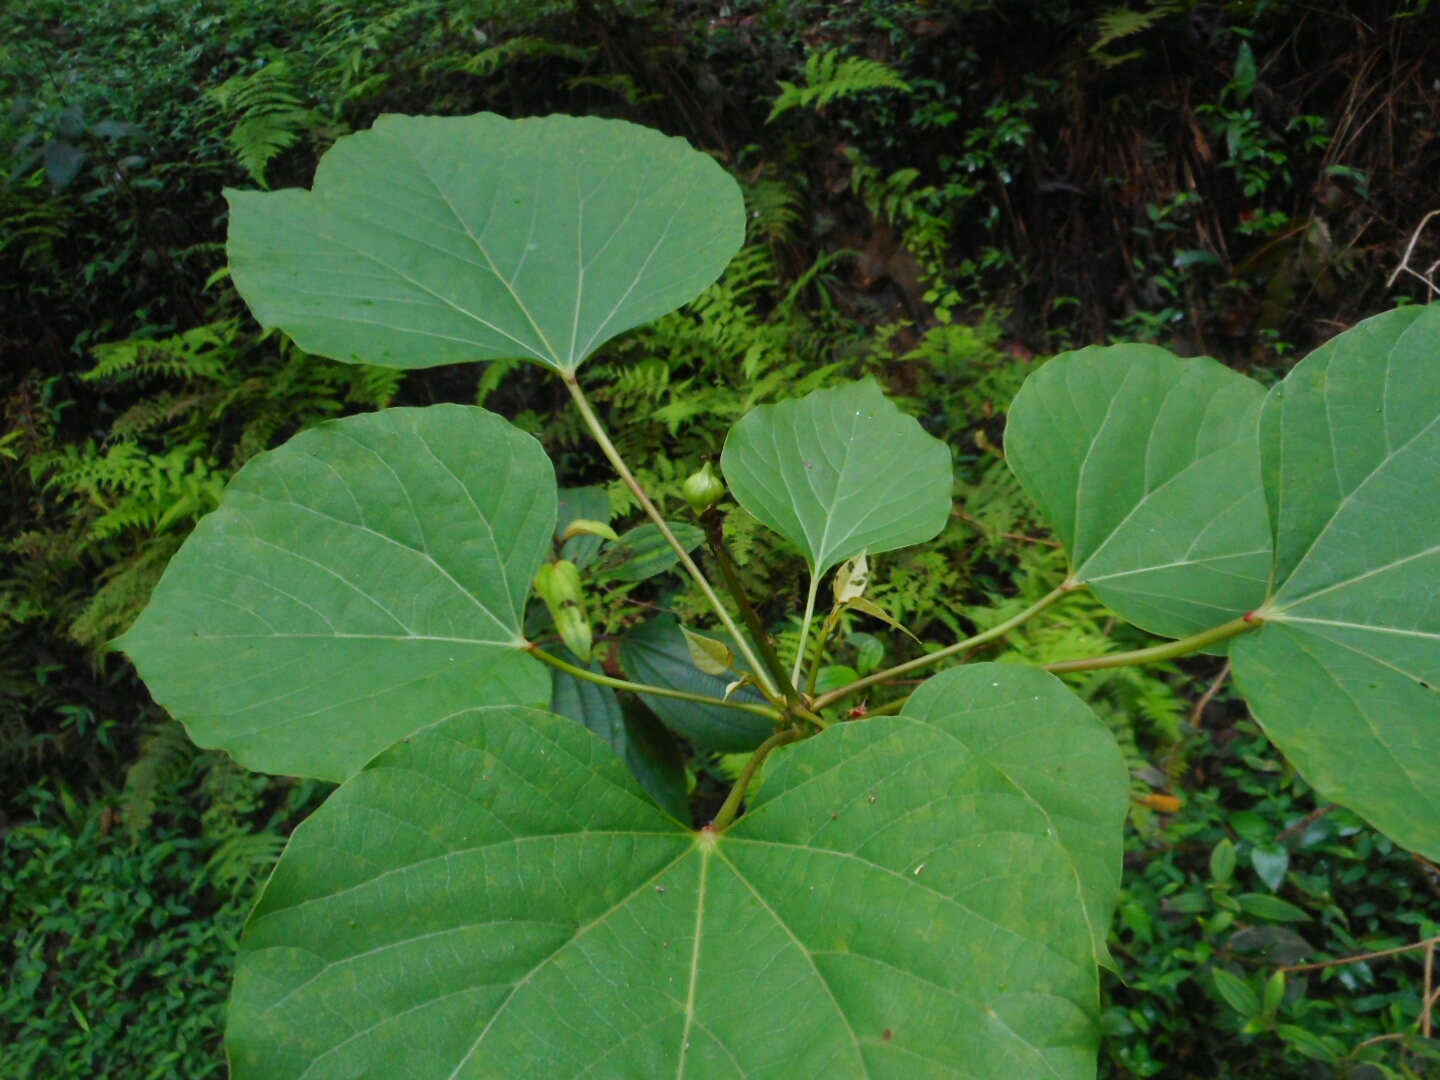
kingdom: Plantae
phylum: Tracheophyta
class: Magnoliopsida
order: Malpighiales
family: Euphorbiaceae
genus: Vernicia
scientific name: Vernicia fordii
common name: Tungoil tree
